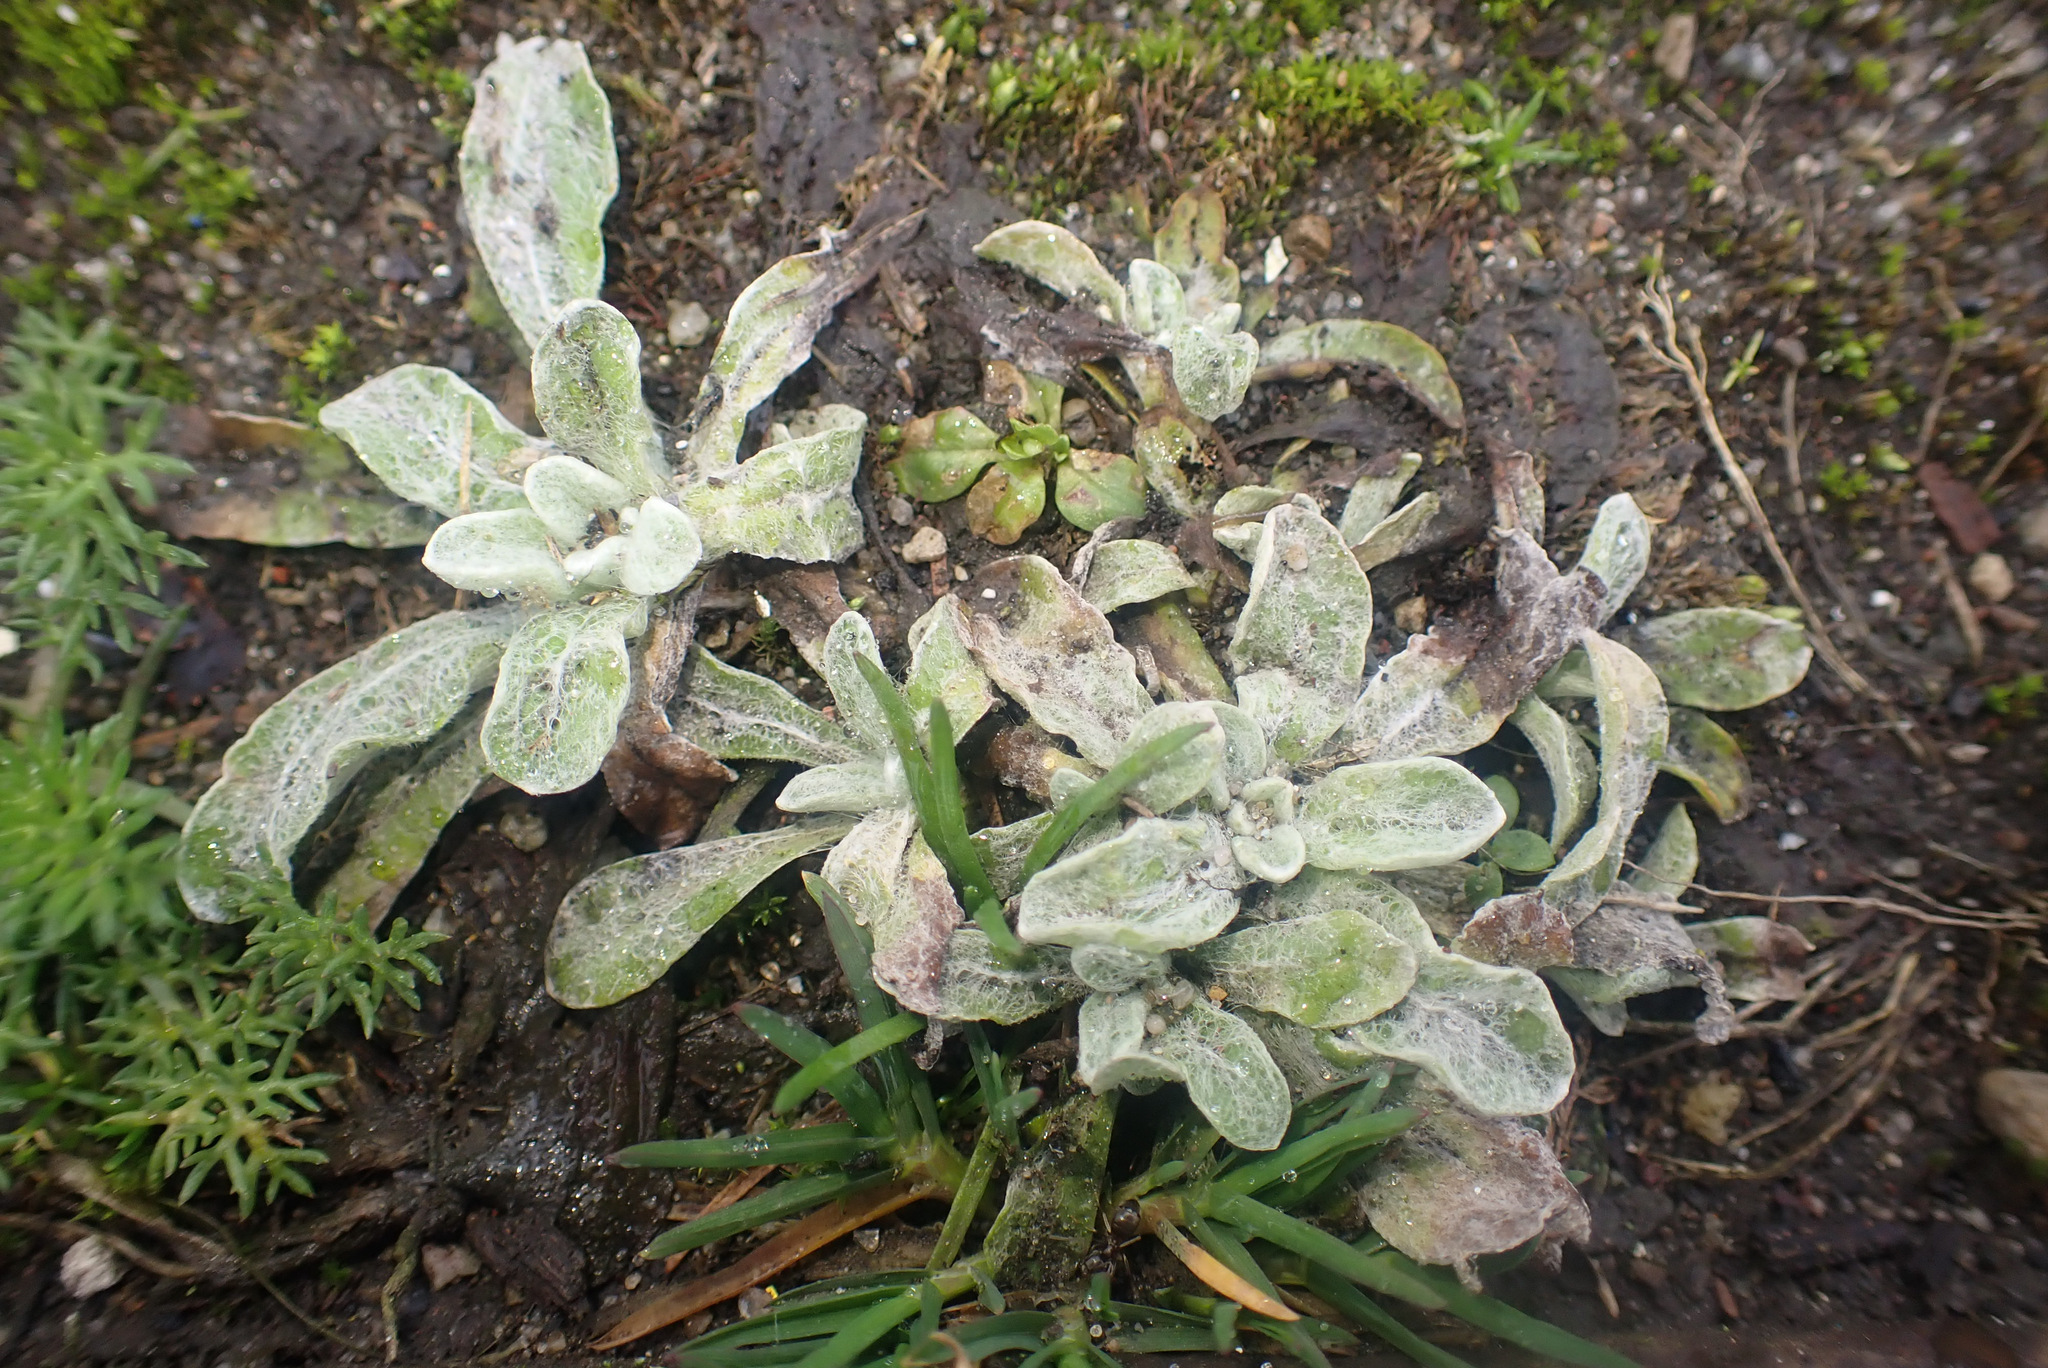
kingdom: Plantae
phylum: Tracheophyta
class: Magnoliopsida
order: Asterales
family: Asteraceae
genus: Helichrysum
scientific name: Helichrysum luteoalbum
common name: Daisy
